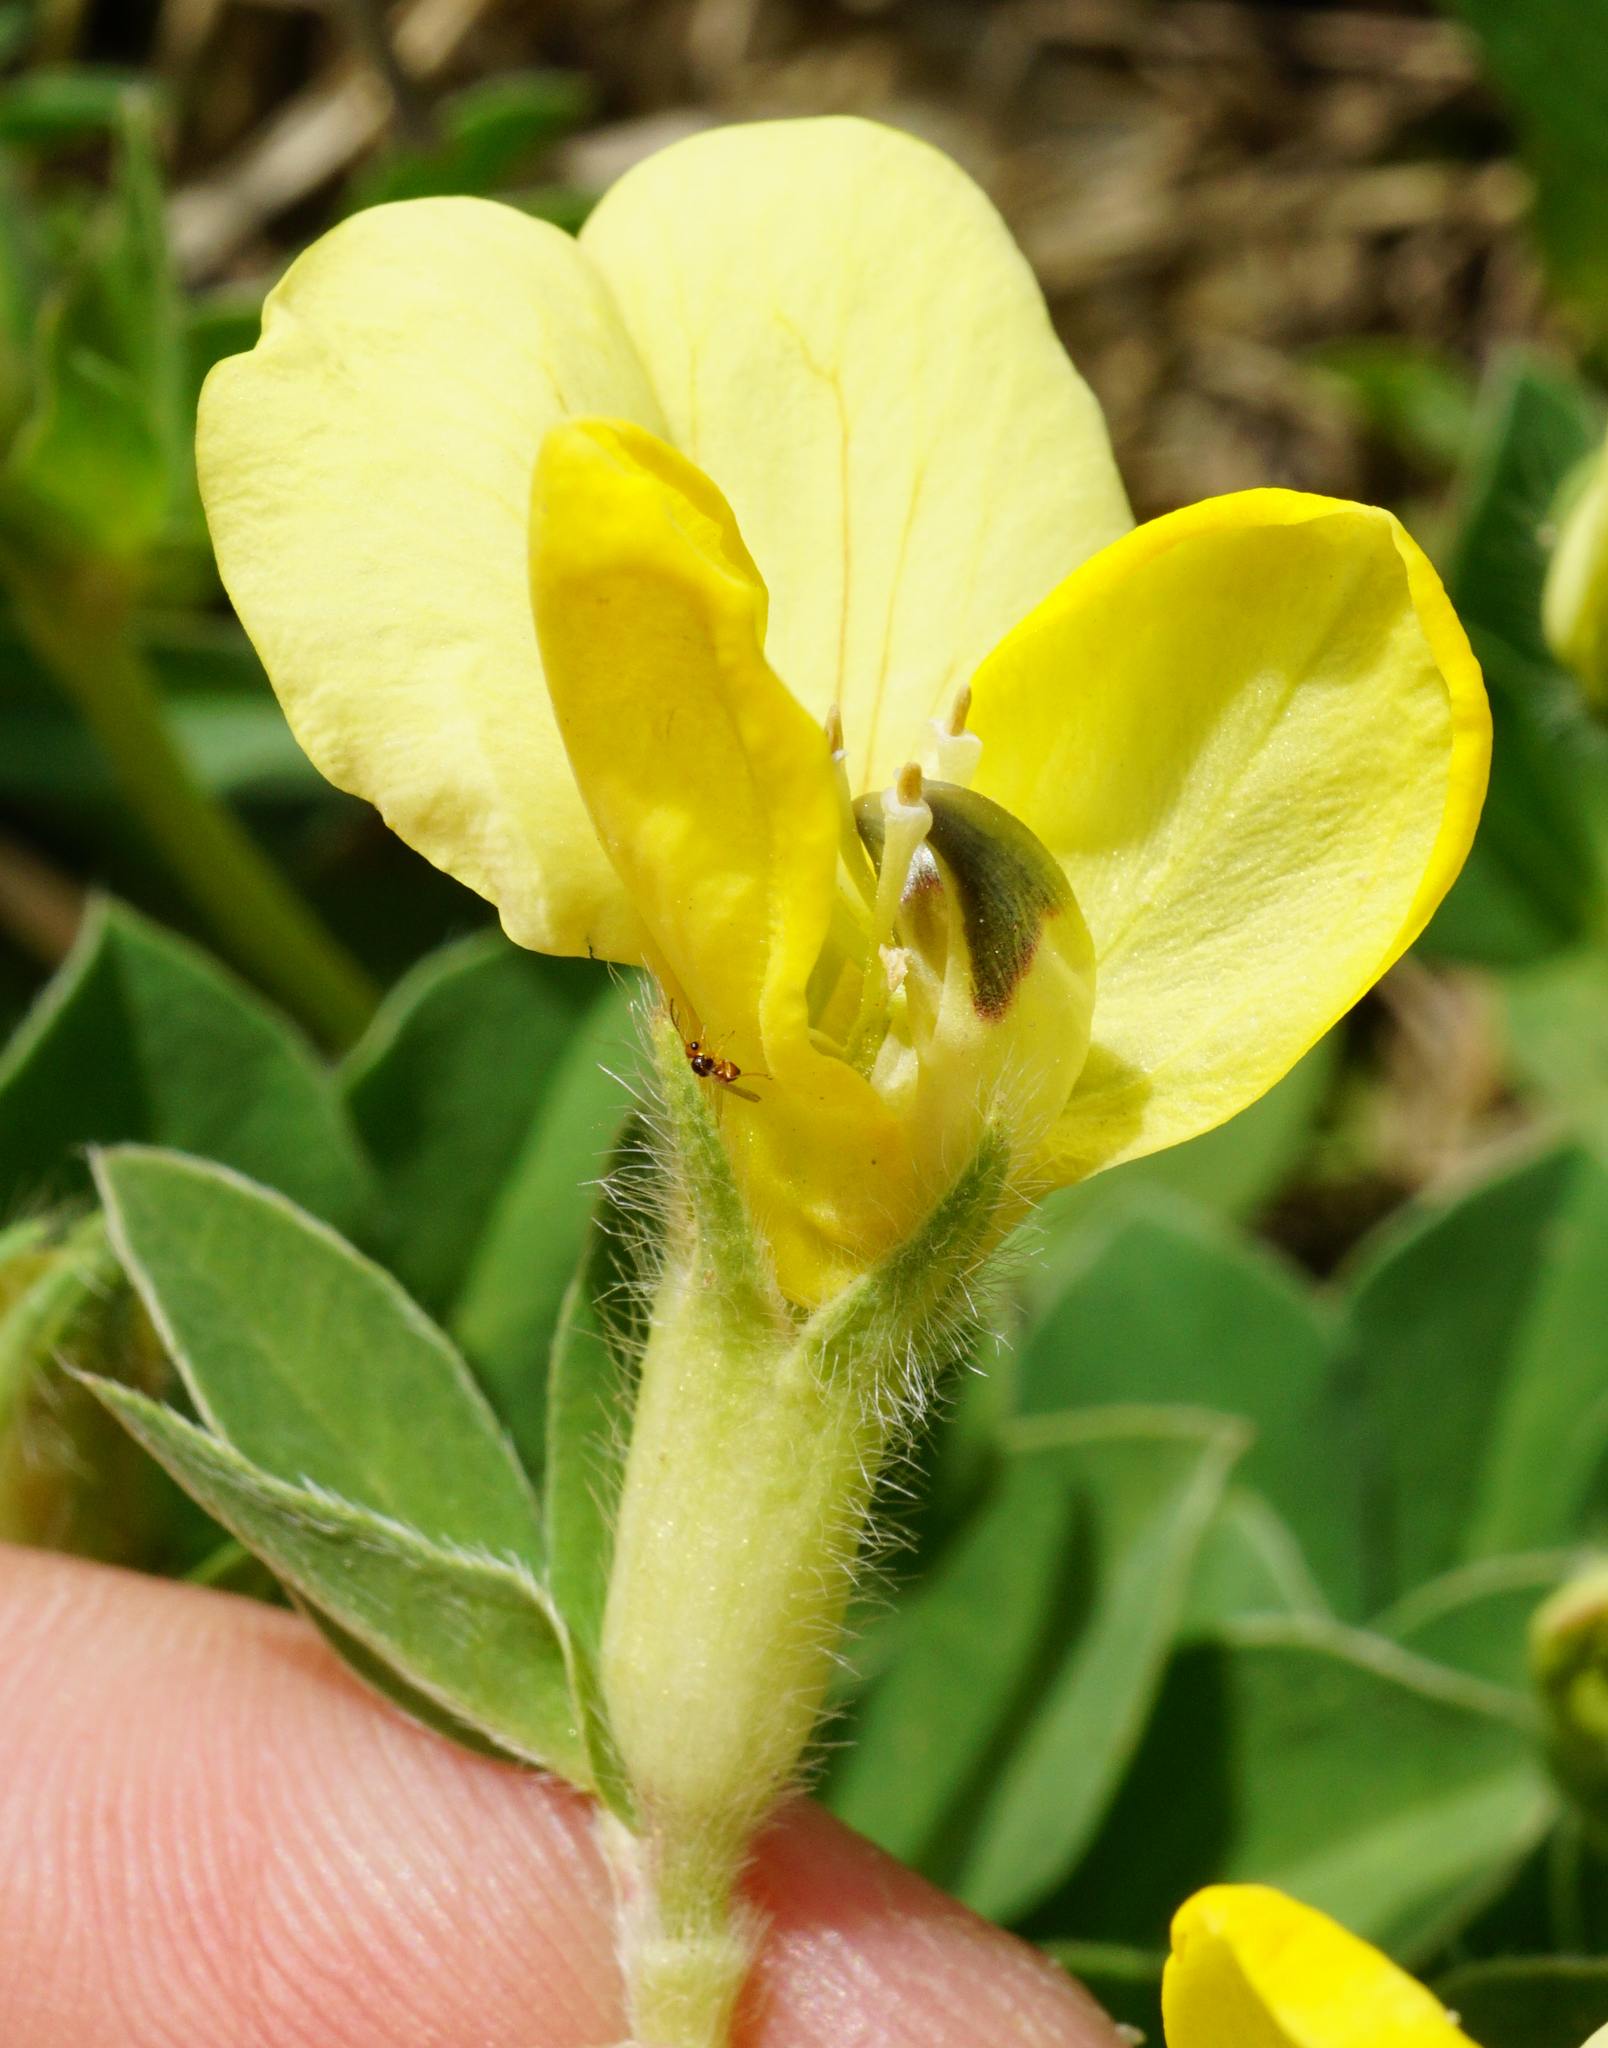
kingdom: Plantae
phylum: Tracheophyta
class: Magnoliopsida
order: Fabales
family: Fabaceae
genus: Lotus
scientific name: Lotus maritimus
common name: Dragon's-teeth
